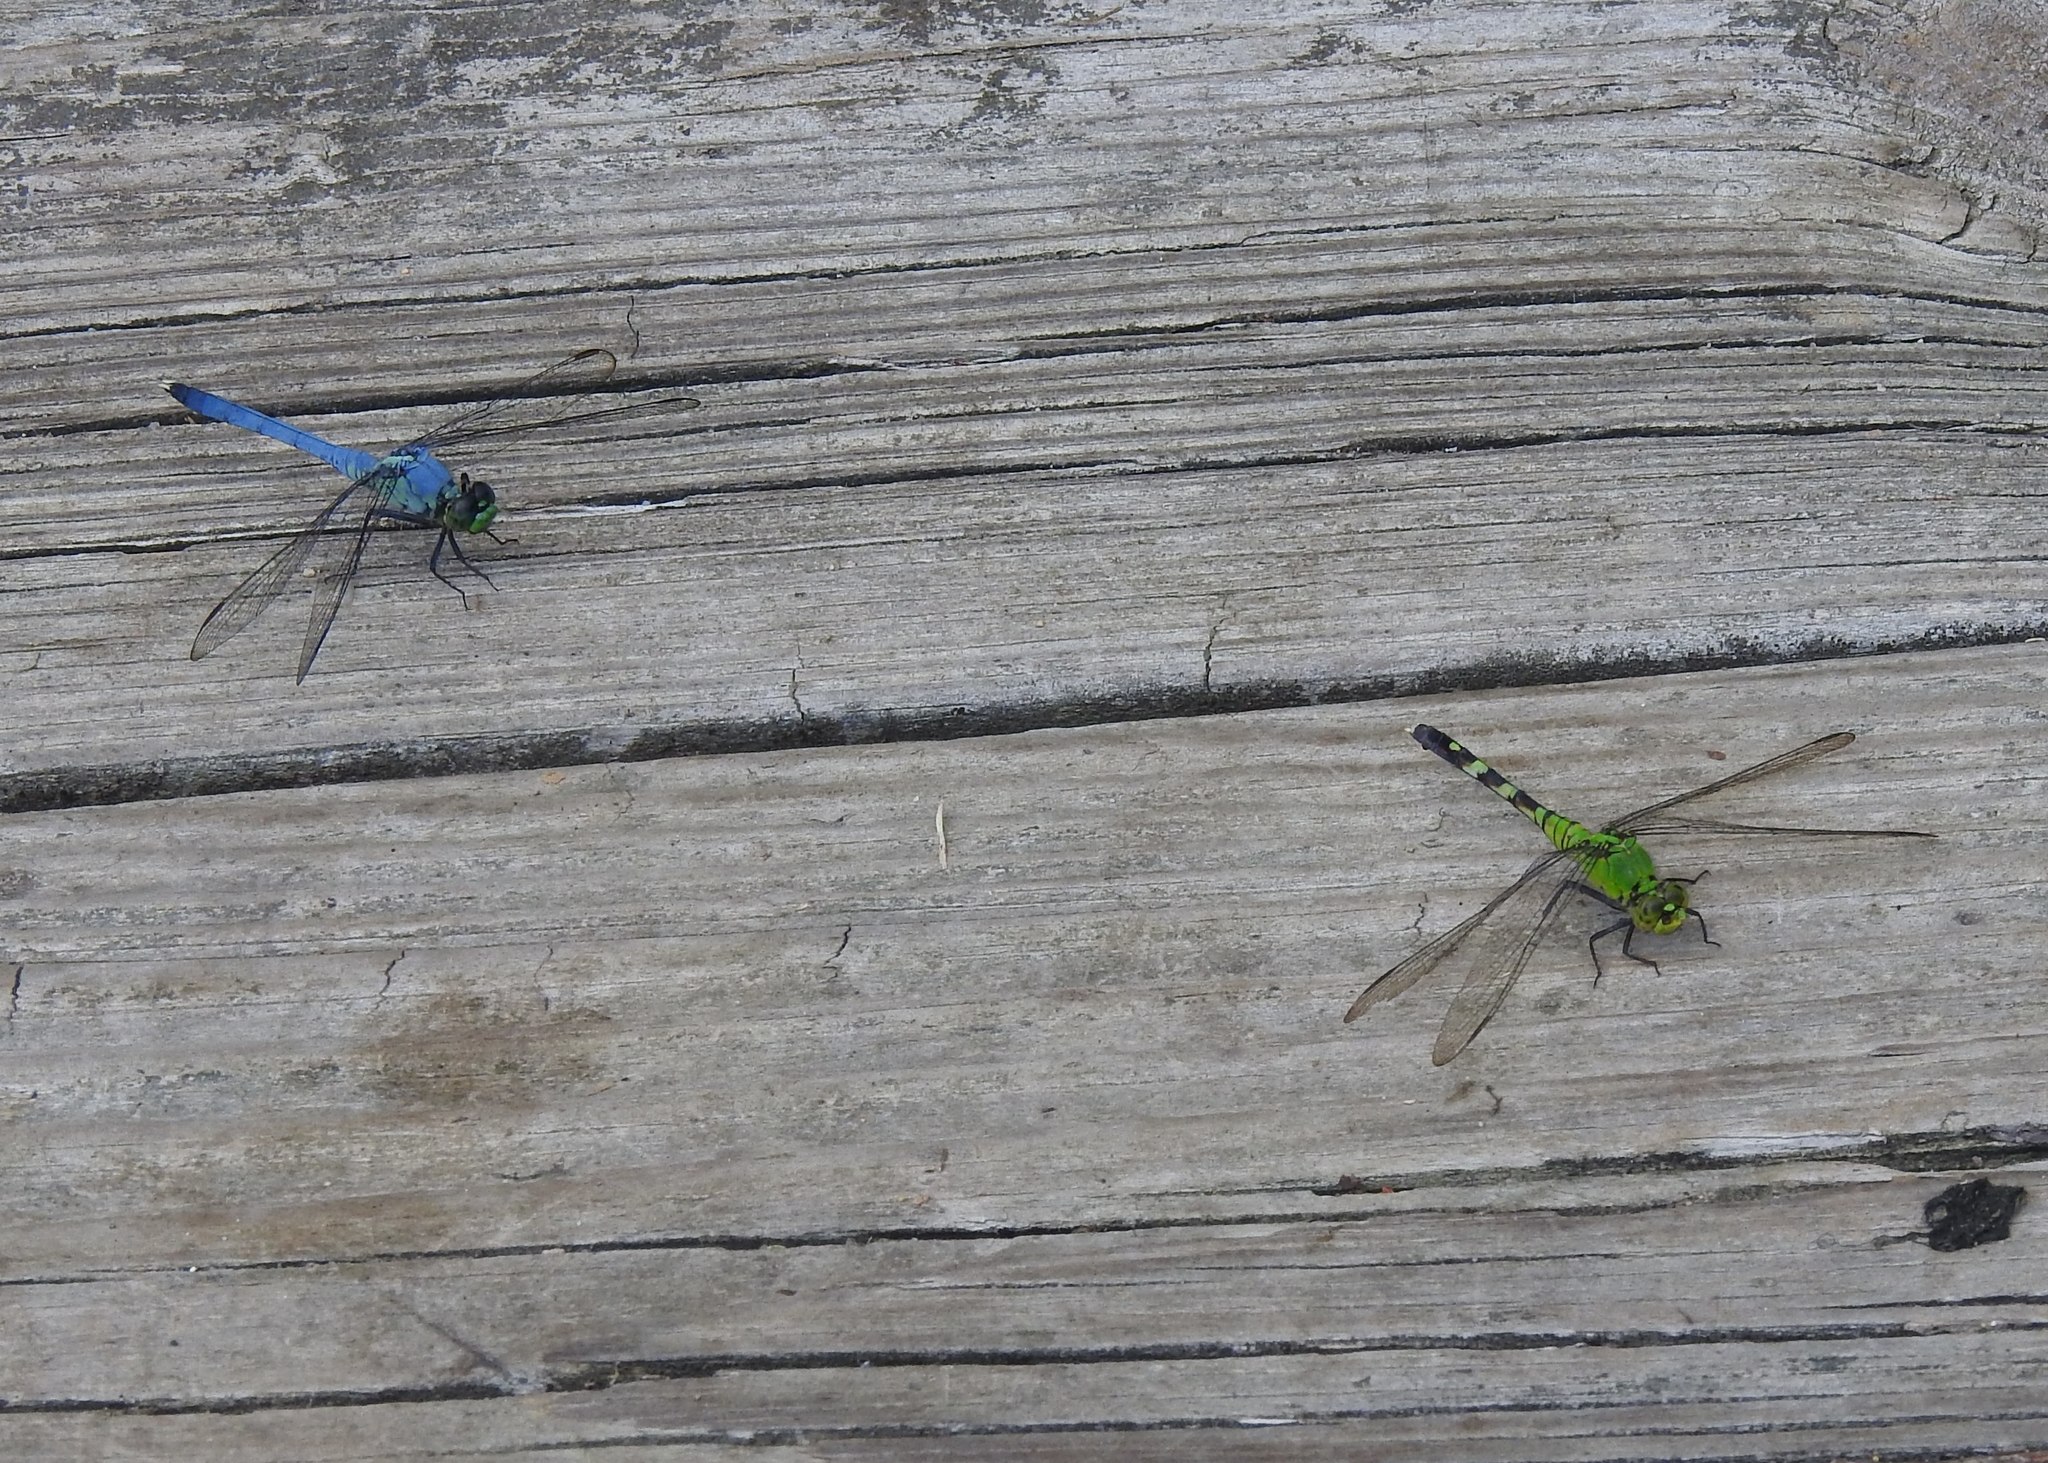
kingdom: Animalia
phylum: Arthropoda
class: Insecta
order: Odonata
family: Libellulidae
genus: Erythemis
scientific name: Erythemis simplicicollis
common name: Eastern pondhawk
